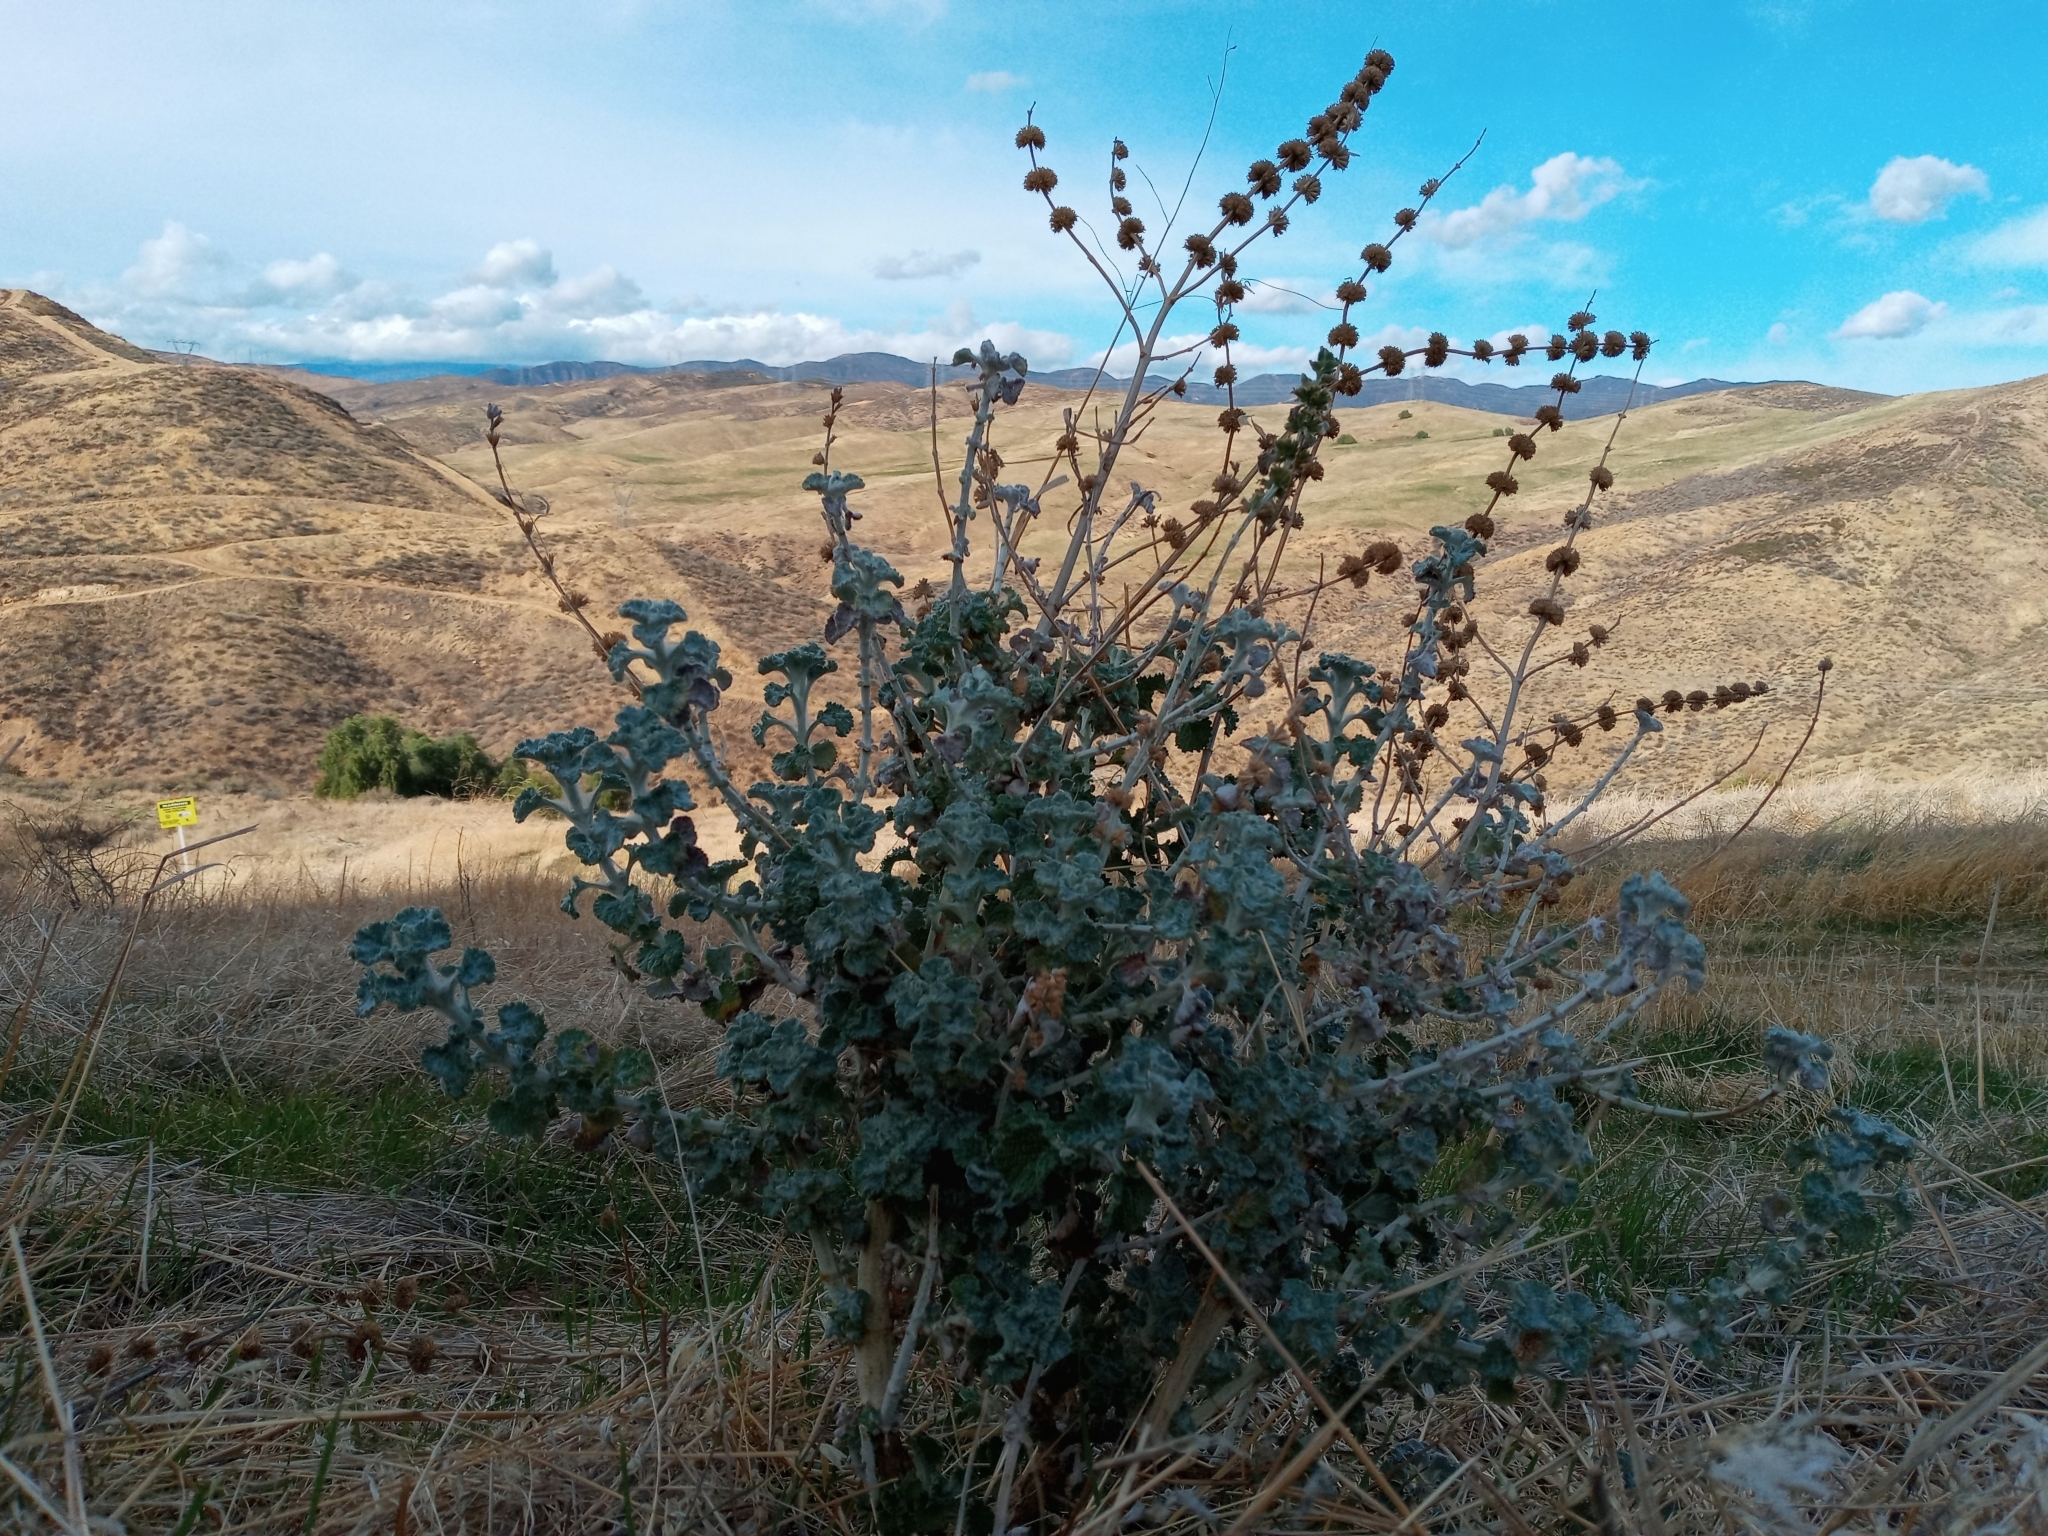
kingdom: Plantae
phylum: Tracheophyta
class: Magnoliopsida
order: Lamiales
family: Lamiaceae
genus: Marrubium
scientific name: Marrubium vulgare
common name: Horehound
